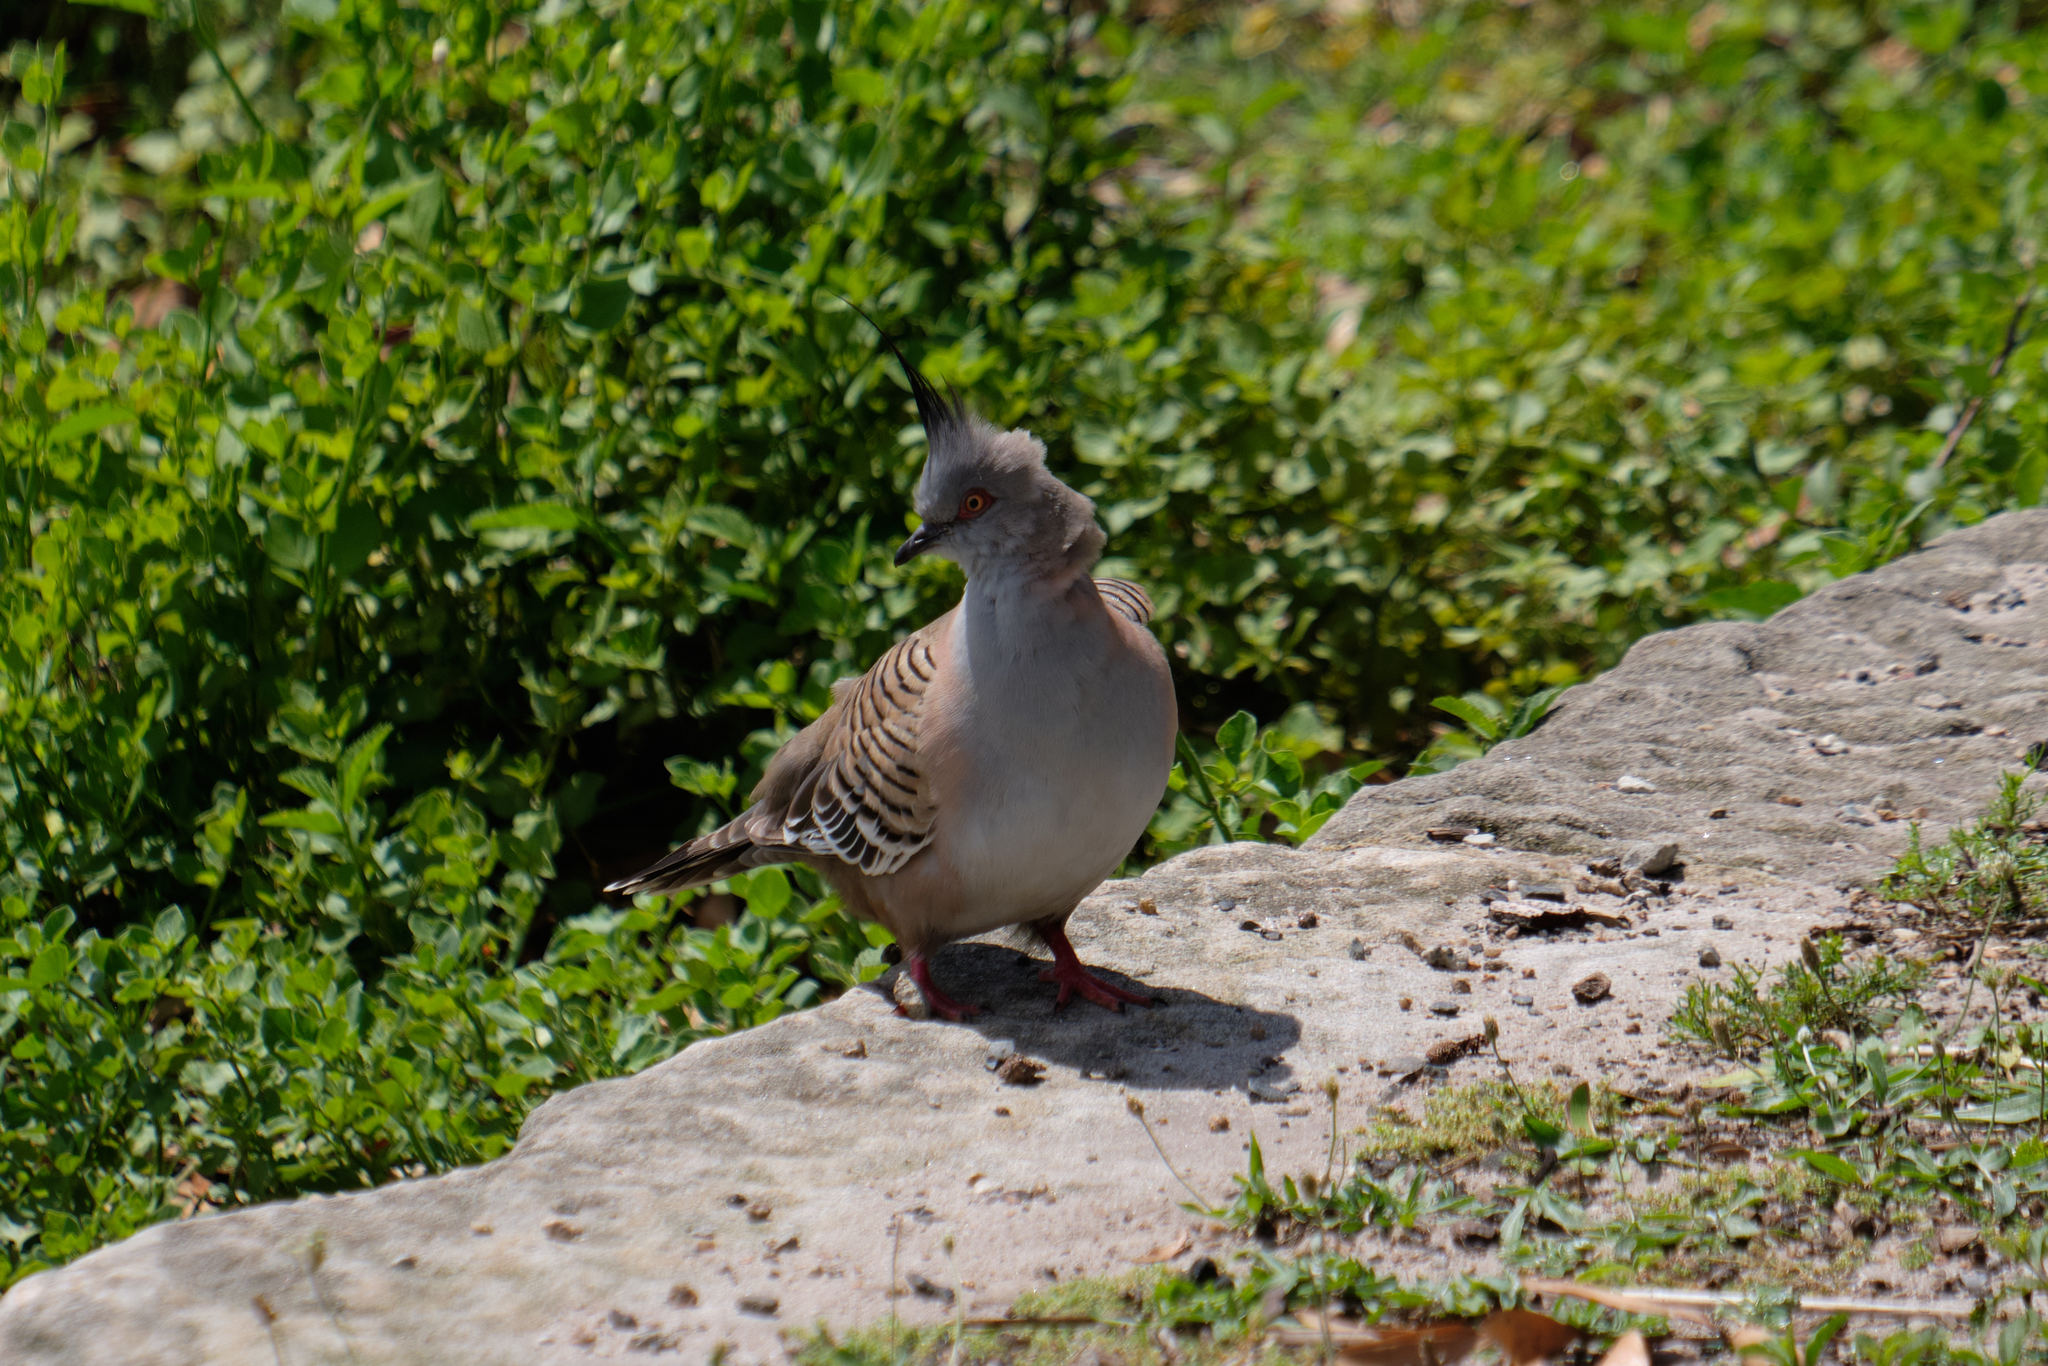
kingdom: Animalia
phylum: Chordata
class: Aves
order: Columbiformes
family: Columbidae
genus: Ocyphaps
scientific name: Ocyphaps lophotes
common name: Crested pigeon
